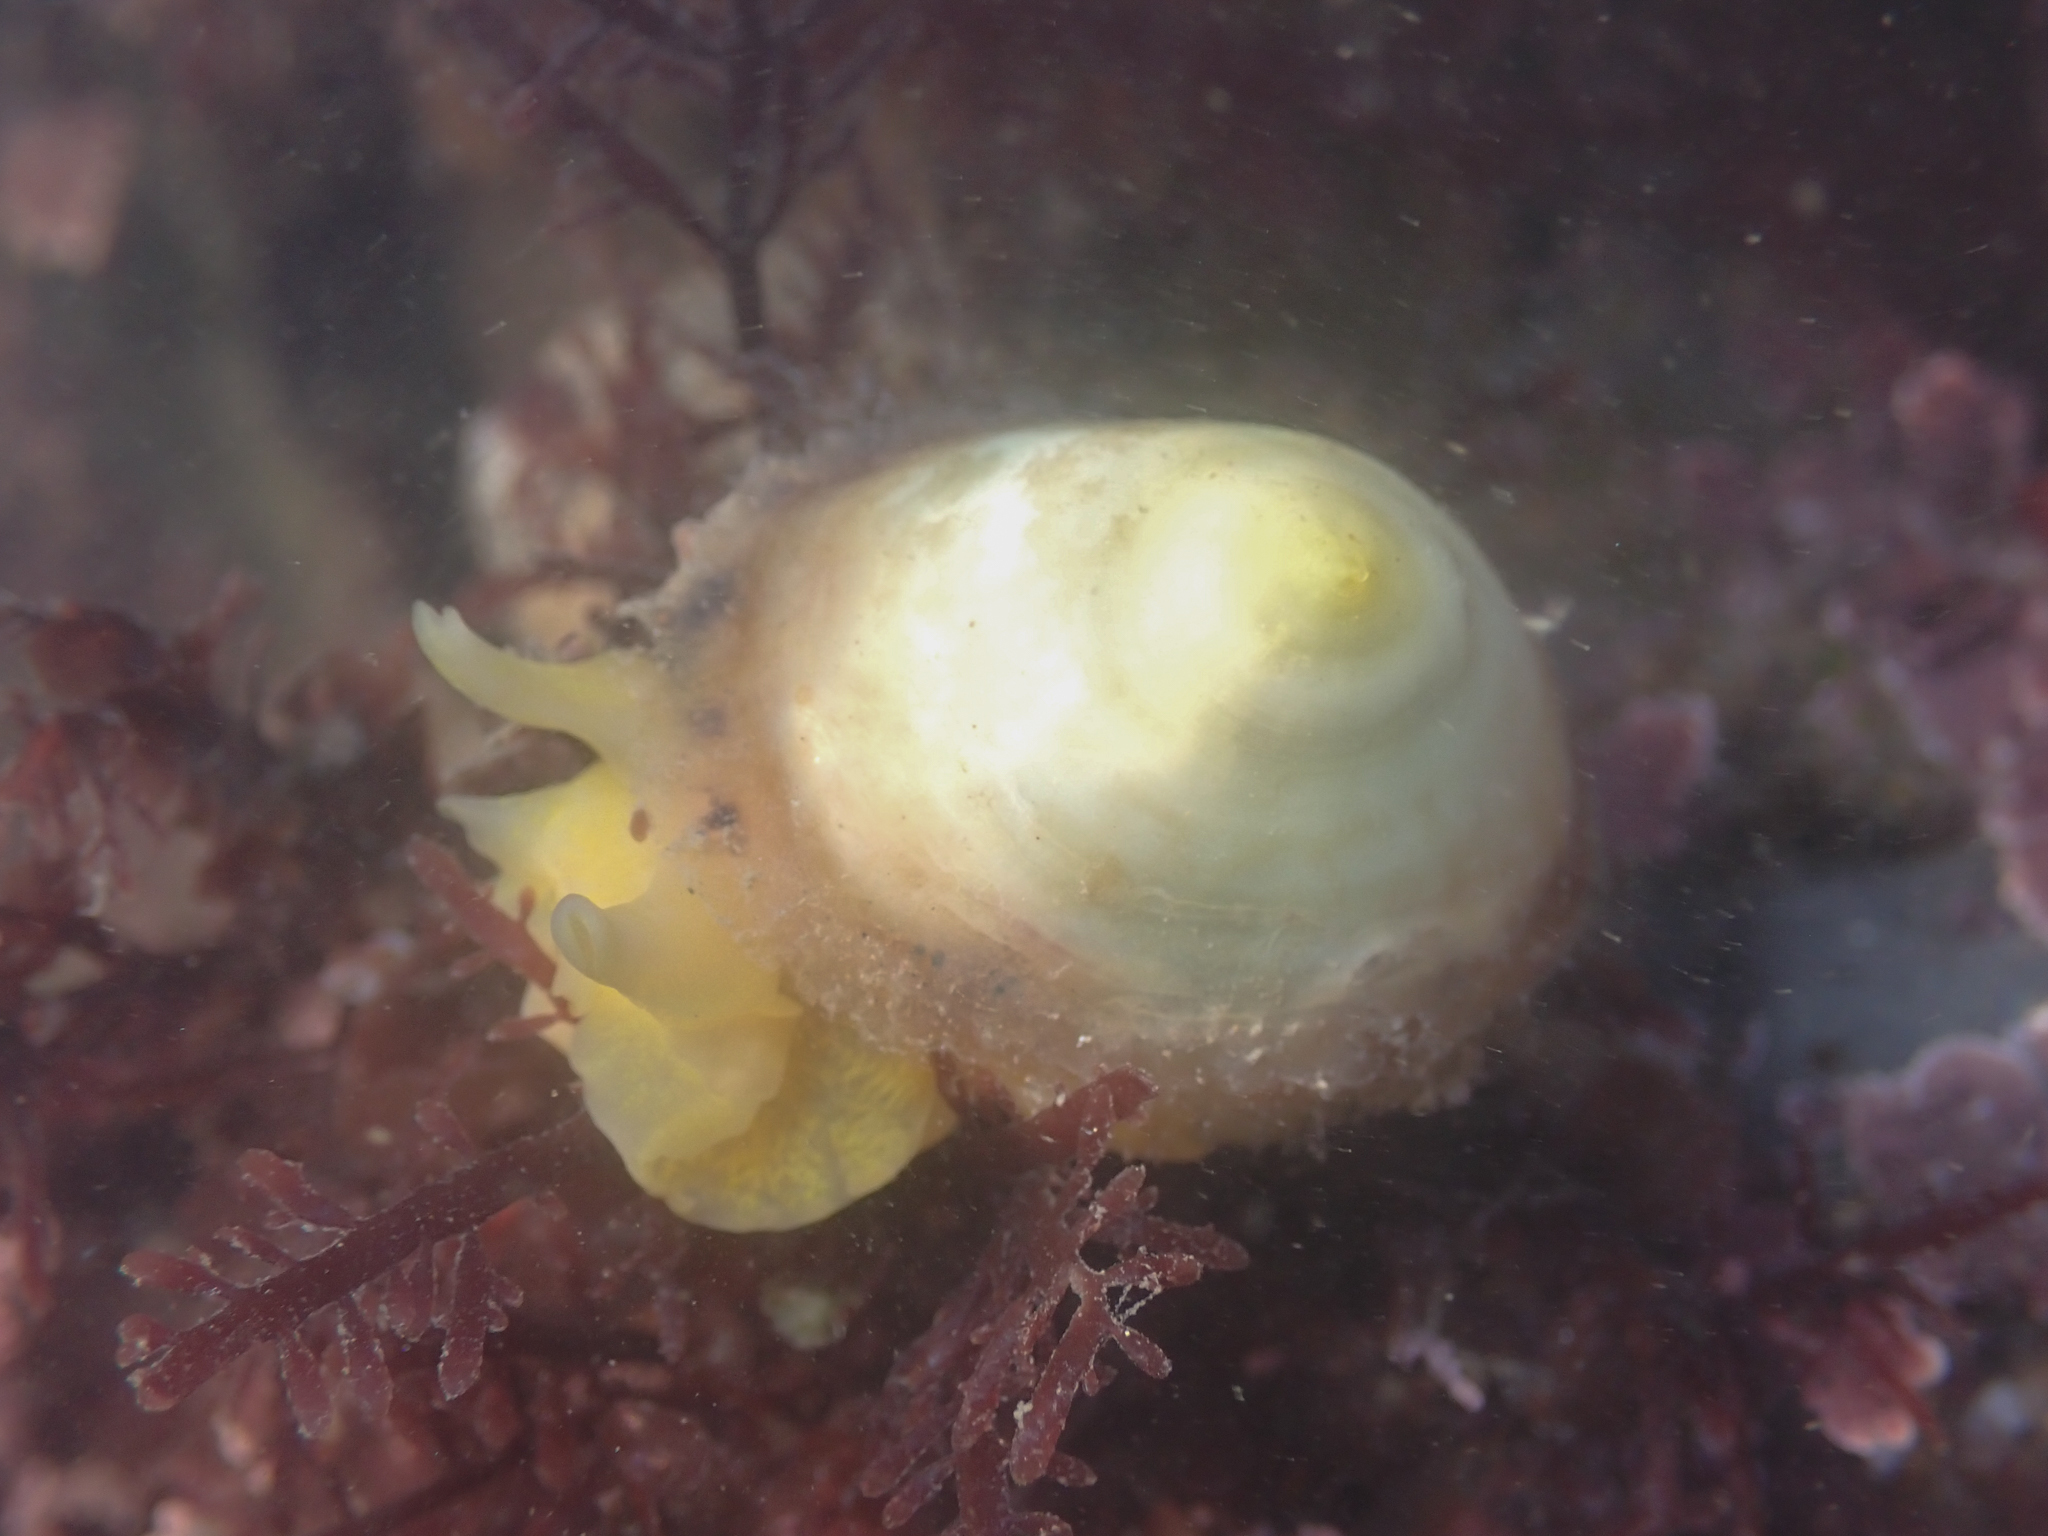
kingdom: Animalia
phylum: Mollusca
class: Gastropoda
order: Umbraculida
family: Tylodinidae
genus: Tylodina
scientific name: Tylodina fungina
